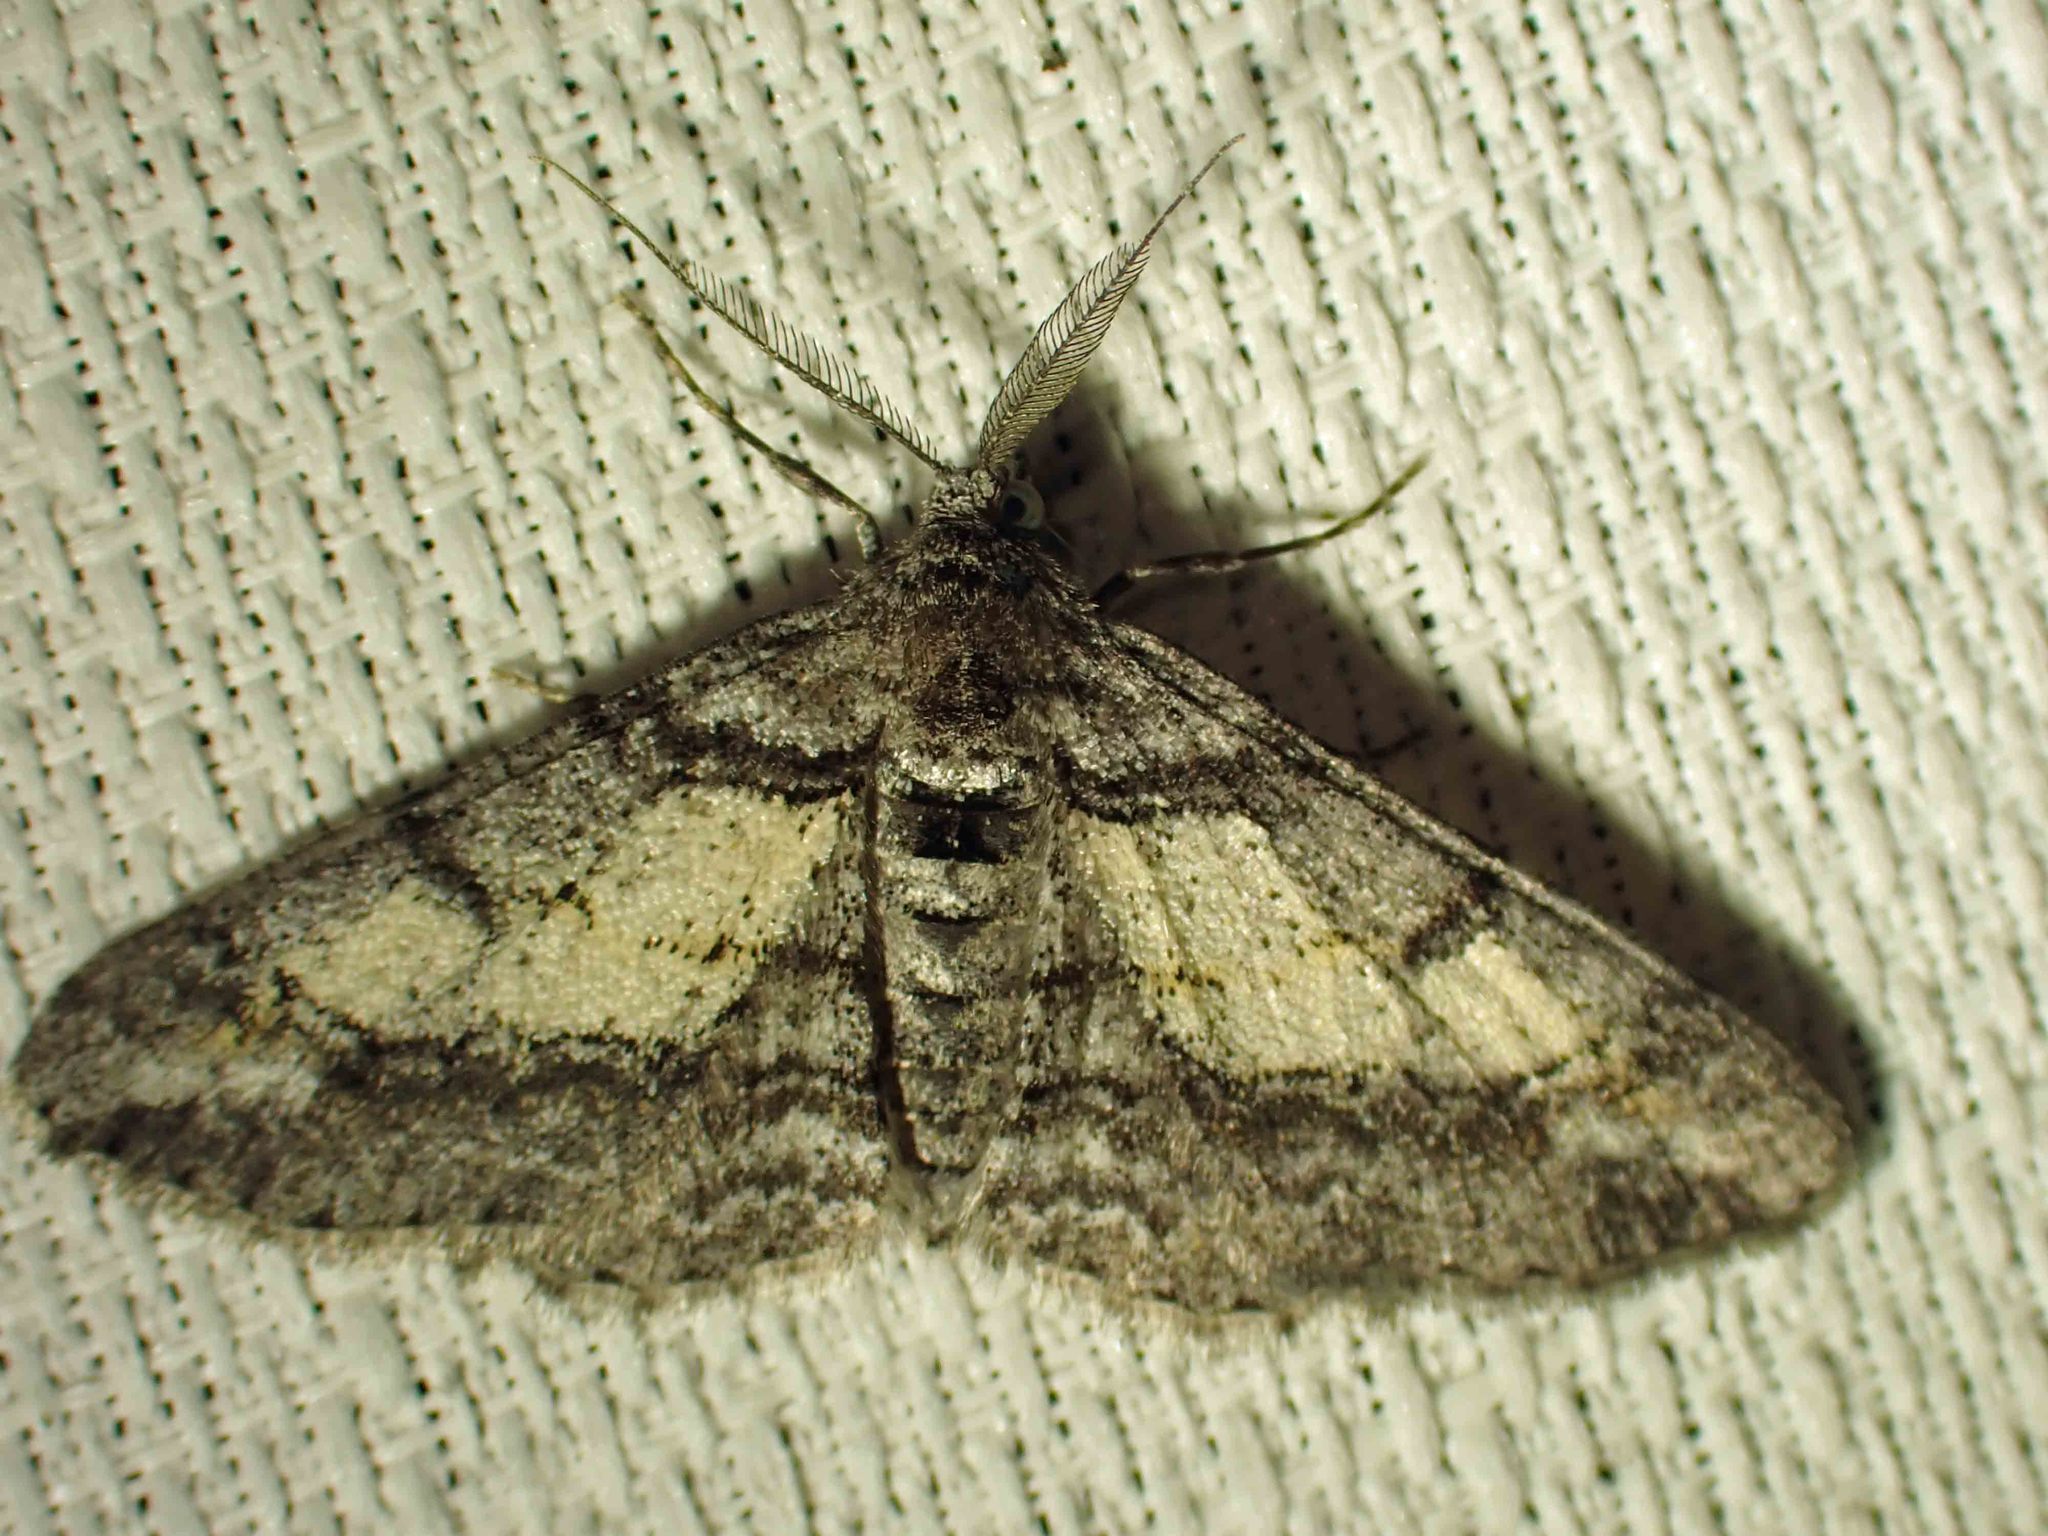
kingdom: Animalia
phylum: Arthropoda
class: Insecta
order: Lepidoptera
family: Geometridae
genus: Cleora
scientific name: Cleora projecta
